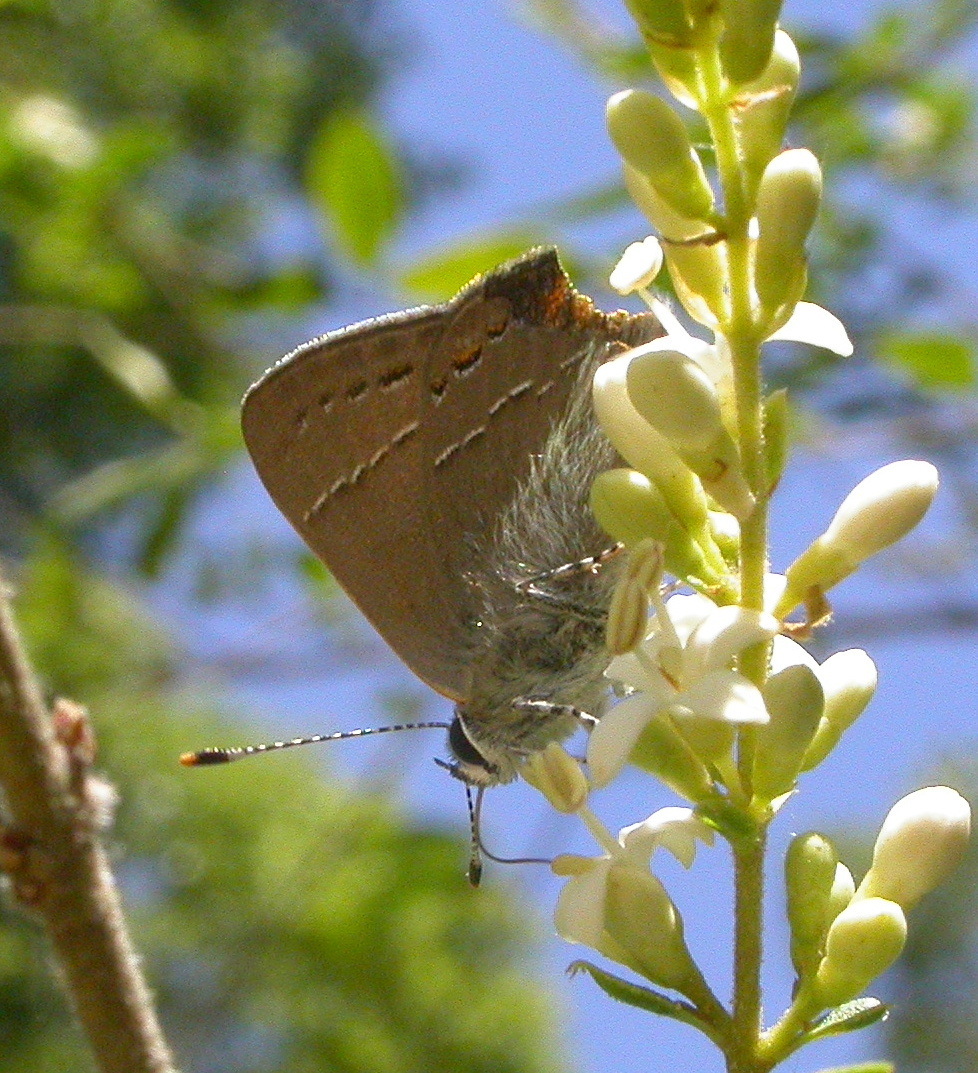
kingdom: Animalia
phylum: Arthropoda
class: Insecta
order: Lepidoptera
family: Lycaenidae
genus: Fixsenia
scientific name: Fixsenia favonius
